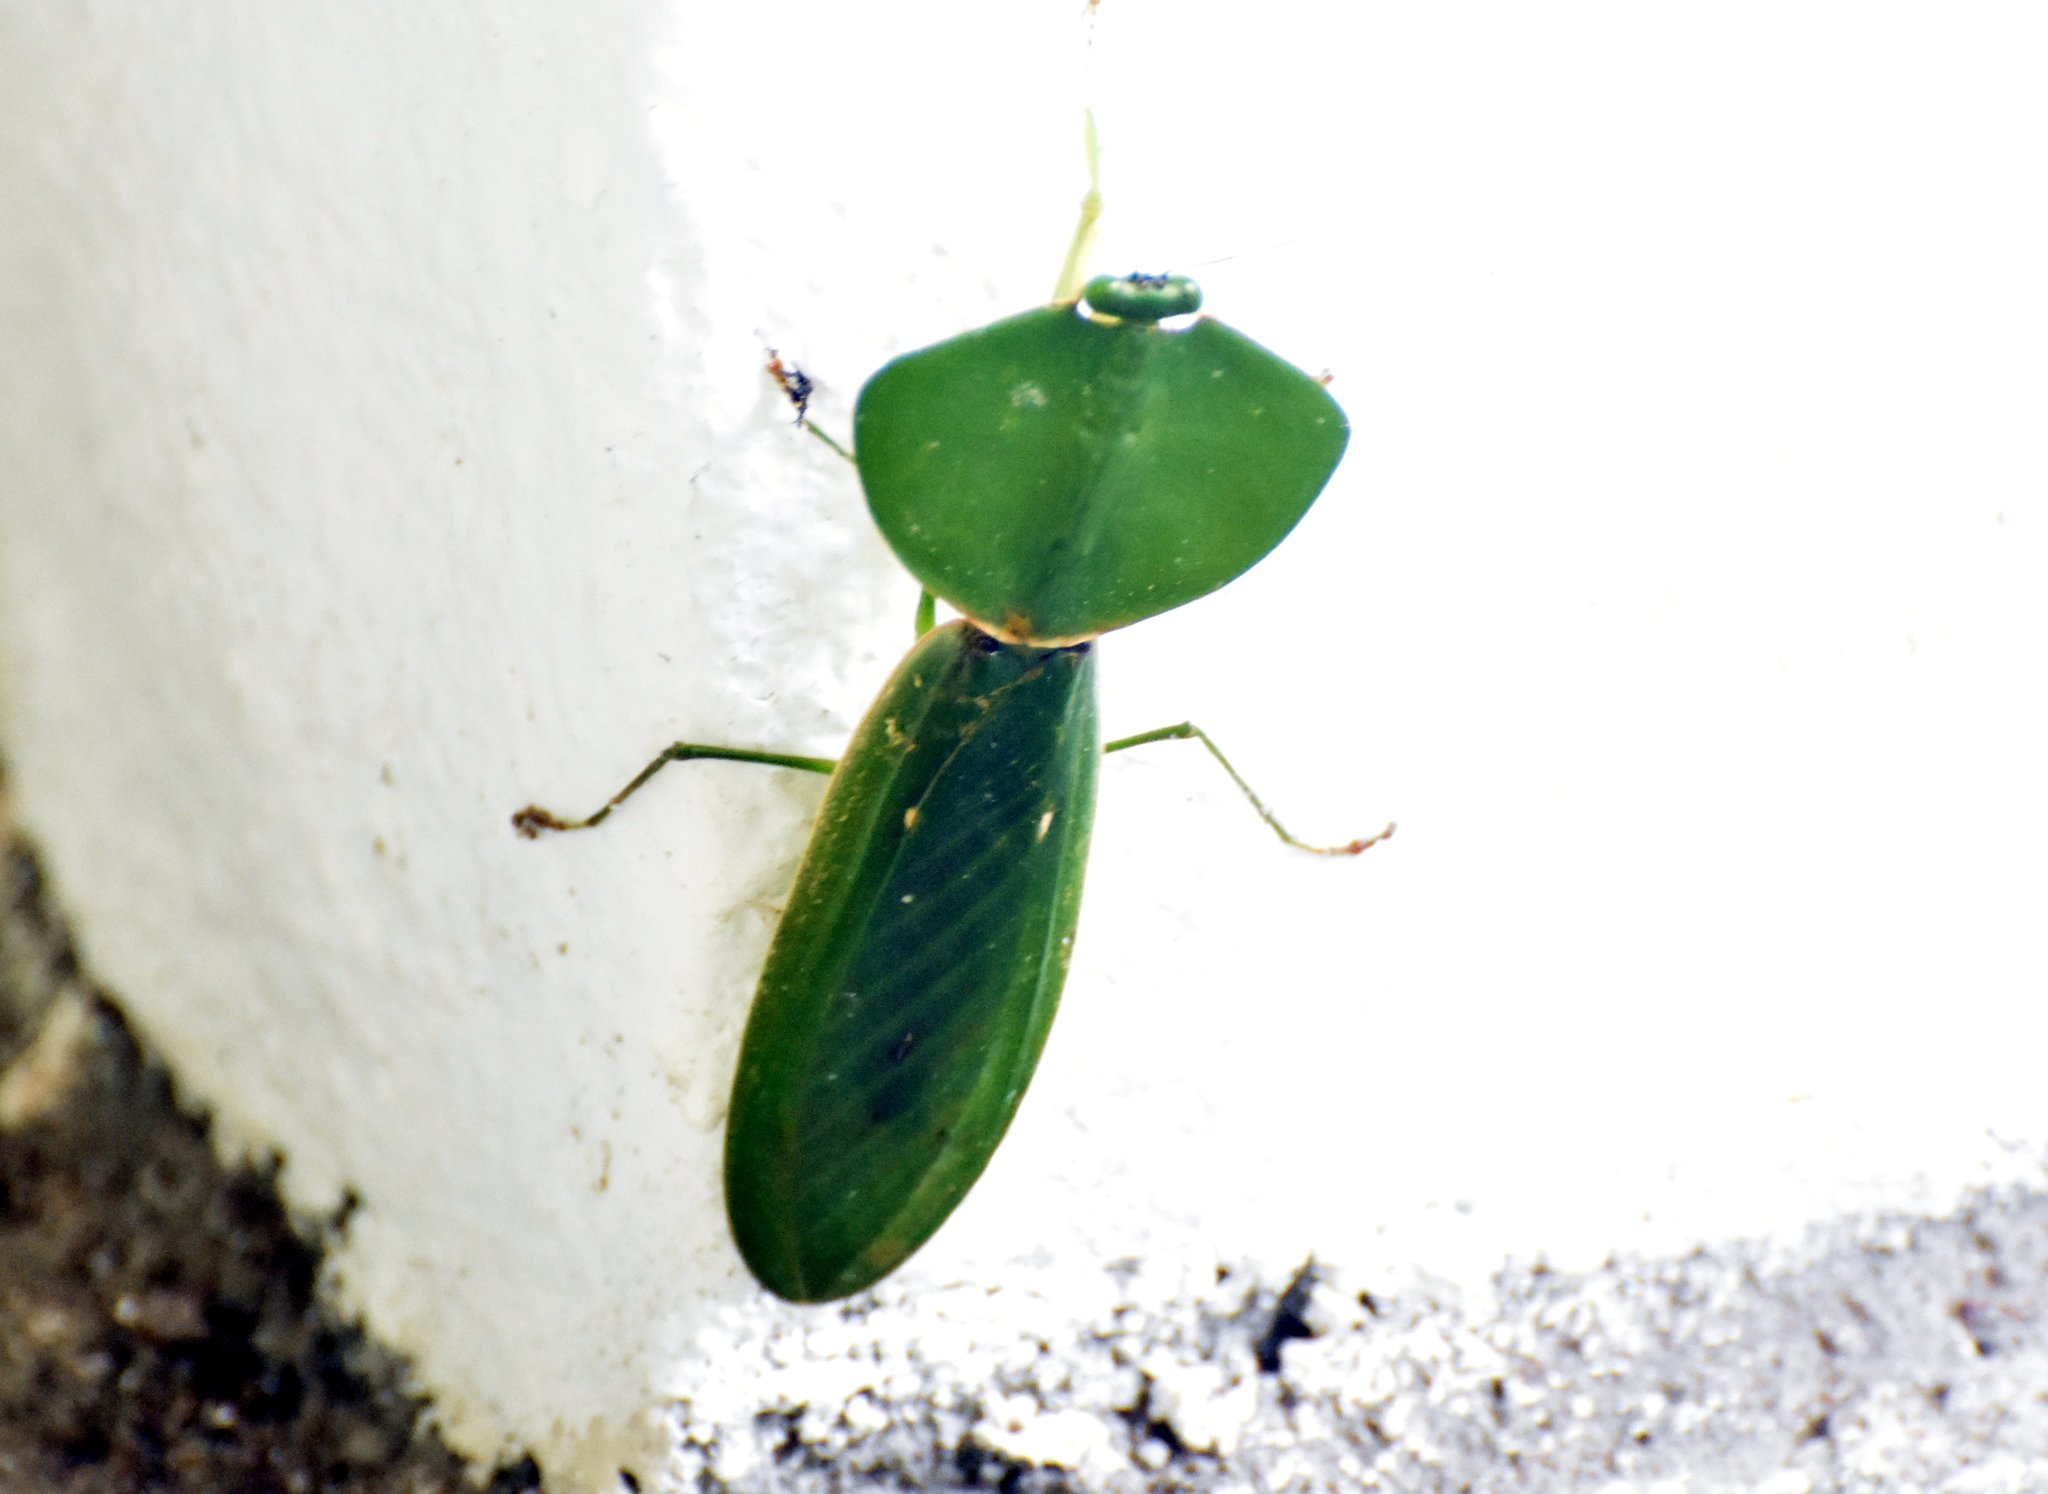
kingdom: Animalia
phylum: Arthropoda
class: Insecta
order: Mantodea
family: Mantidae
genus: Choeradodis
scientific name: Choeradodis rhombicollis
